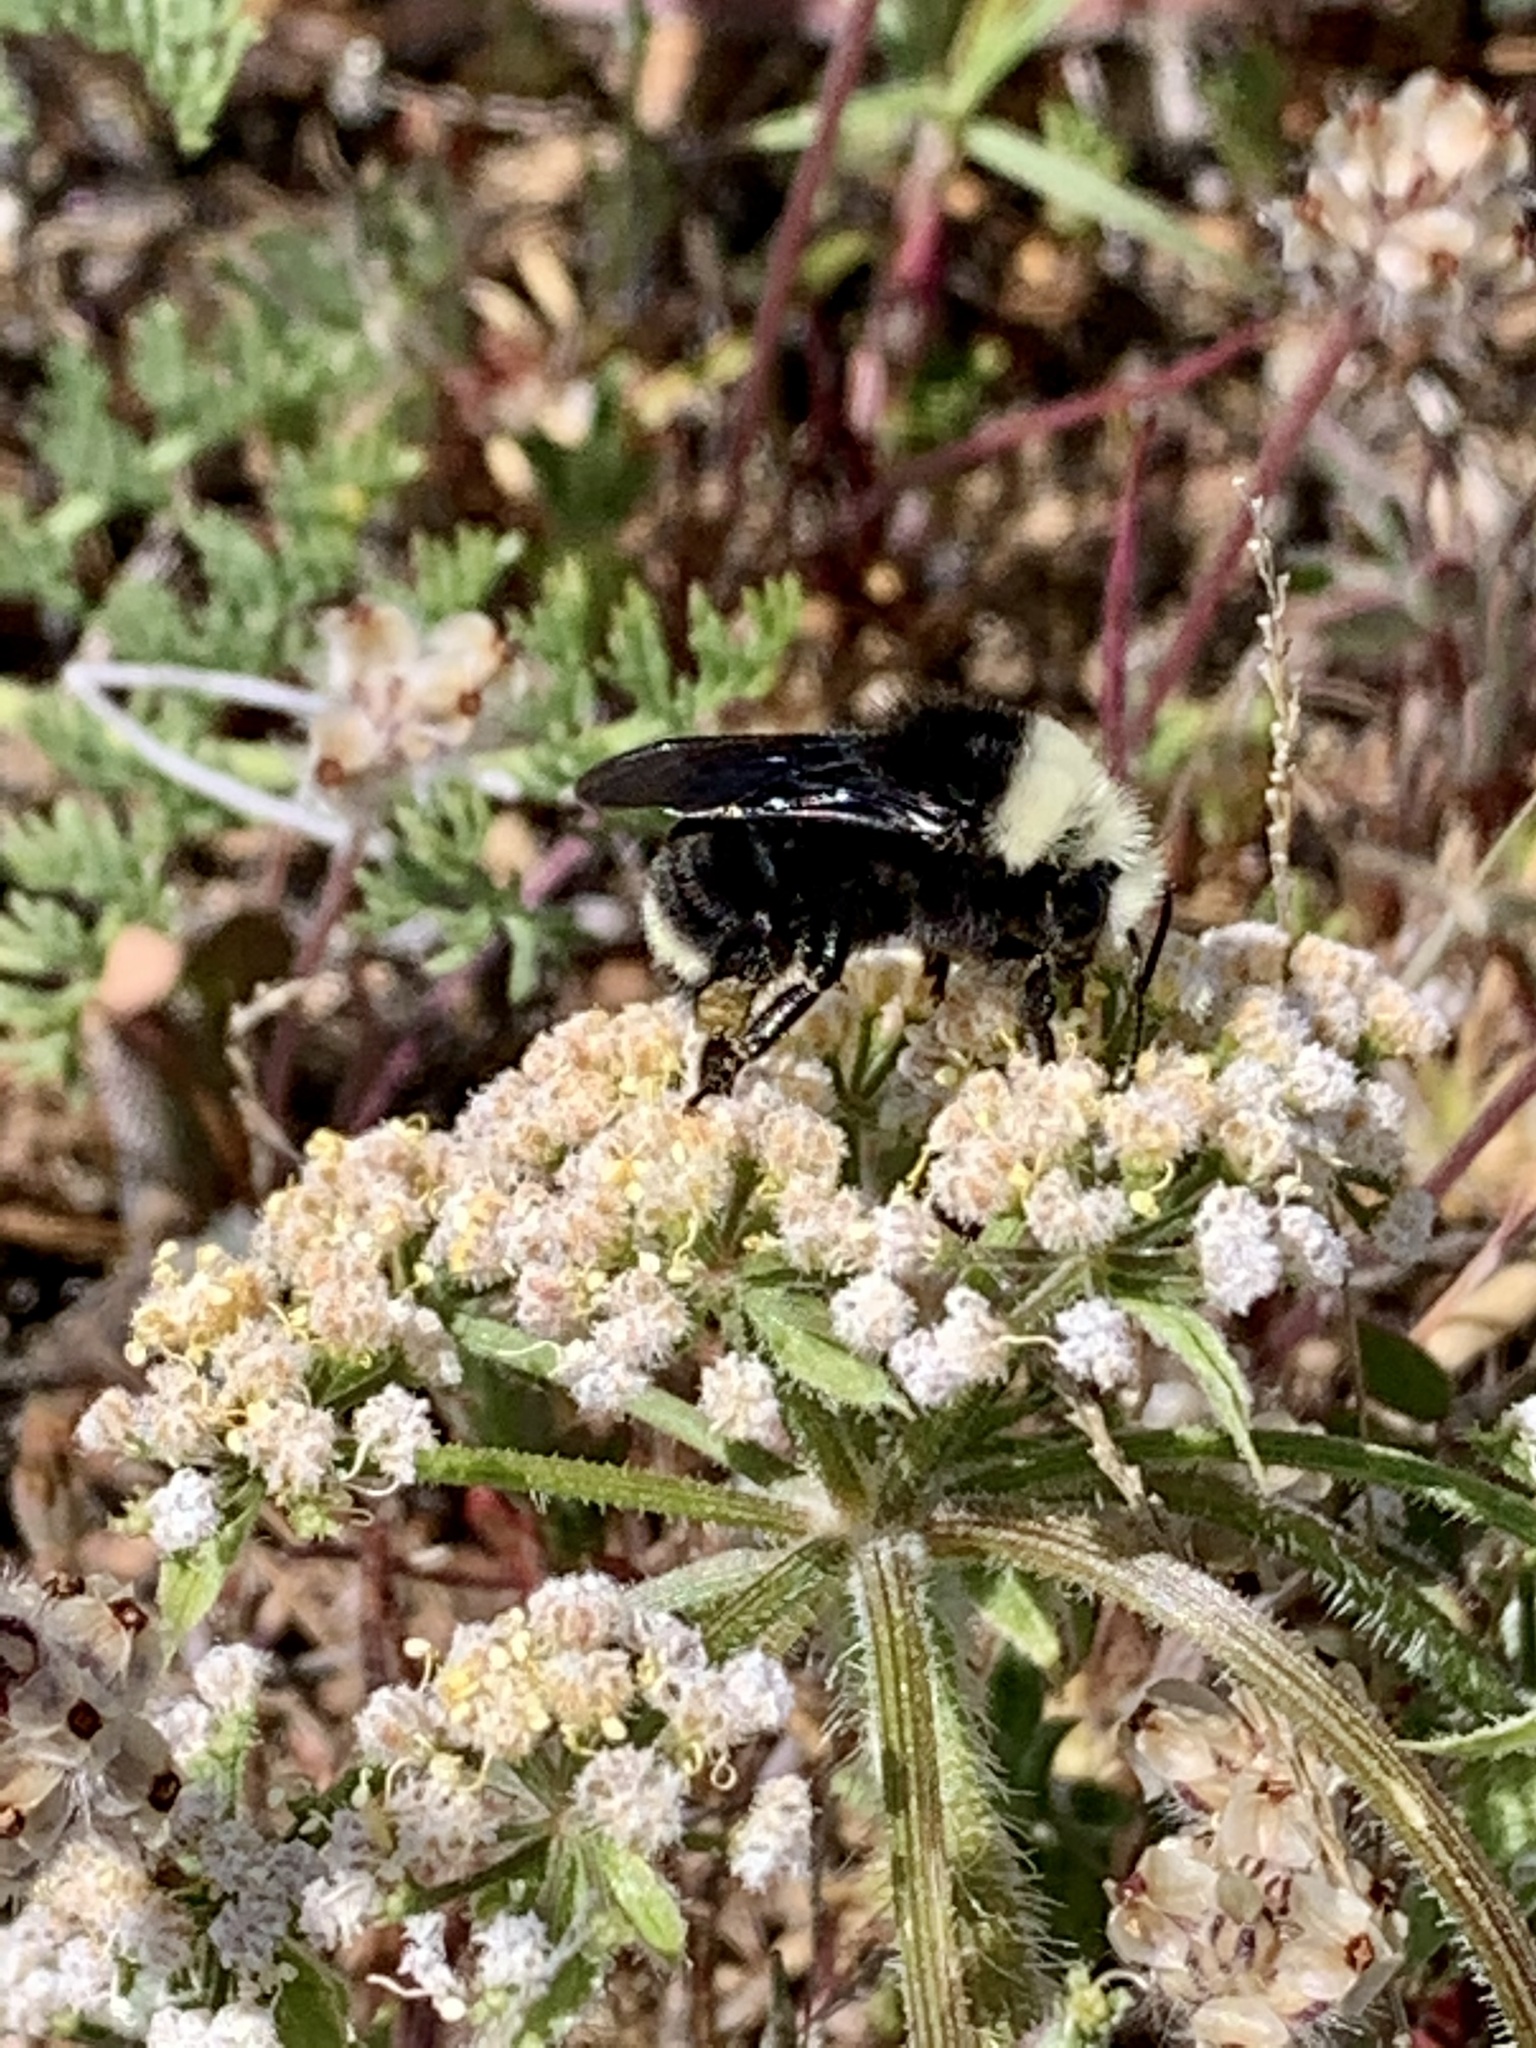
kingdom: Animalia
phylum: Arthropoda
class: Insecta
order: Hymenoptera
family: Apidae
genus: Bombus
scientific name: Bombus vosnesenskii
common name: Vosnesensky bumble bee
